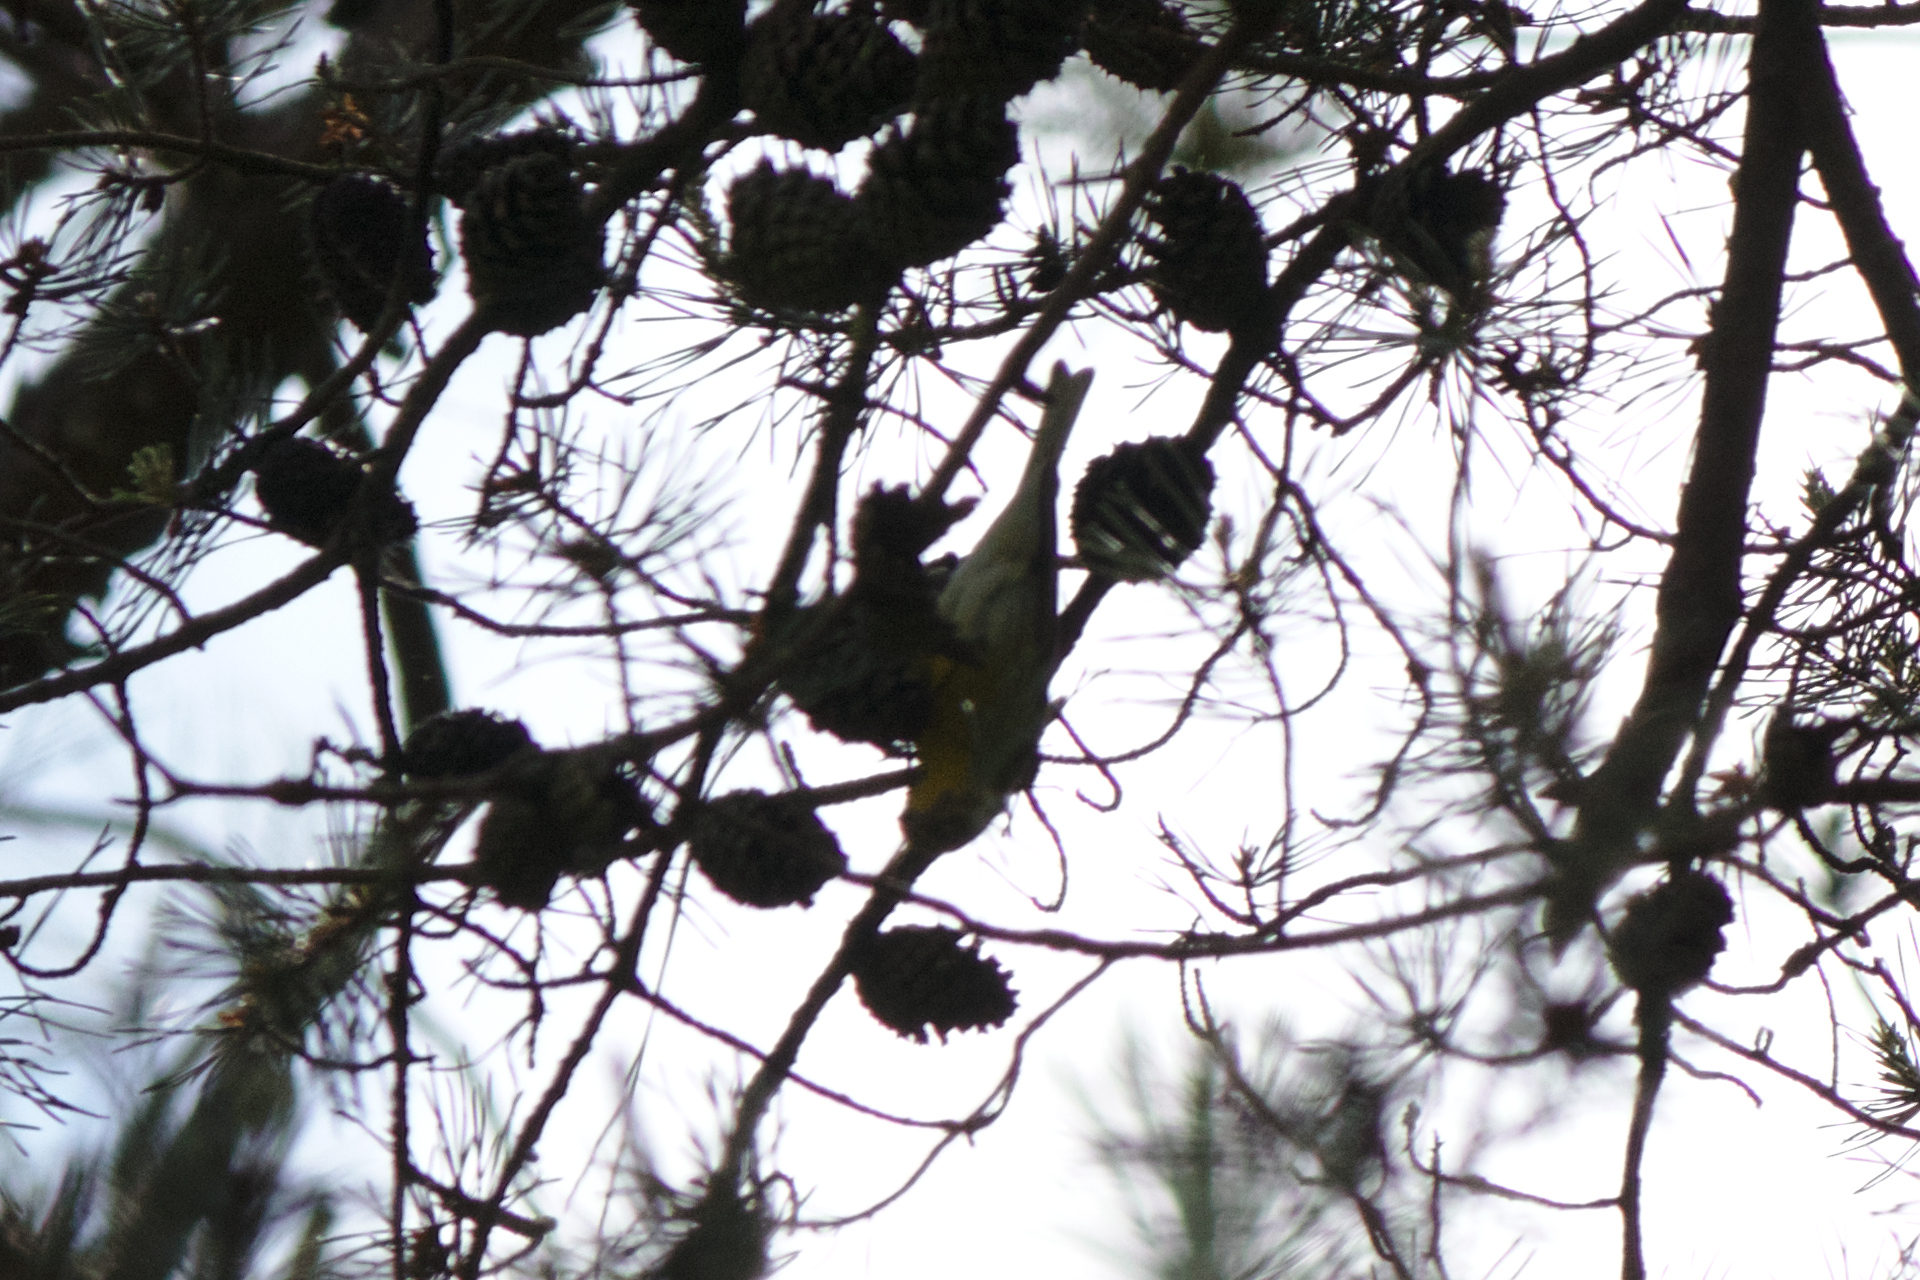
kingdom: Animalia
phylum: Chordata
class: Aves
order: Passeriformes
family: Parulidae
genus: Setophaga
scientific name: Setophaga pinus
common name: Pine warbler
